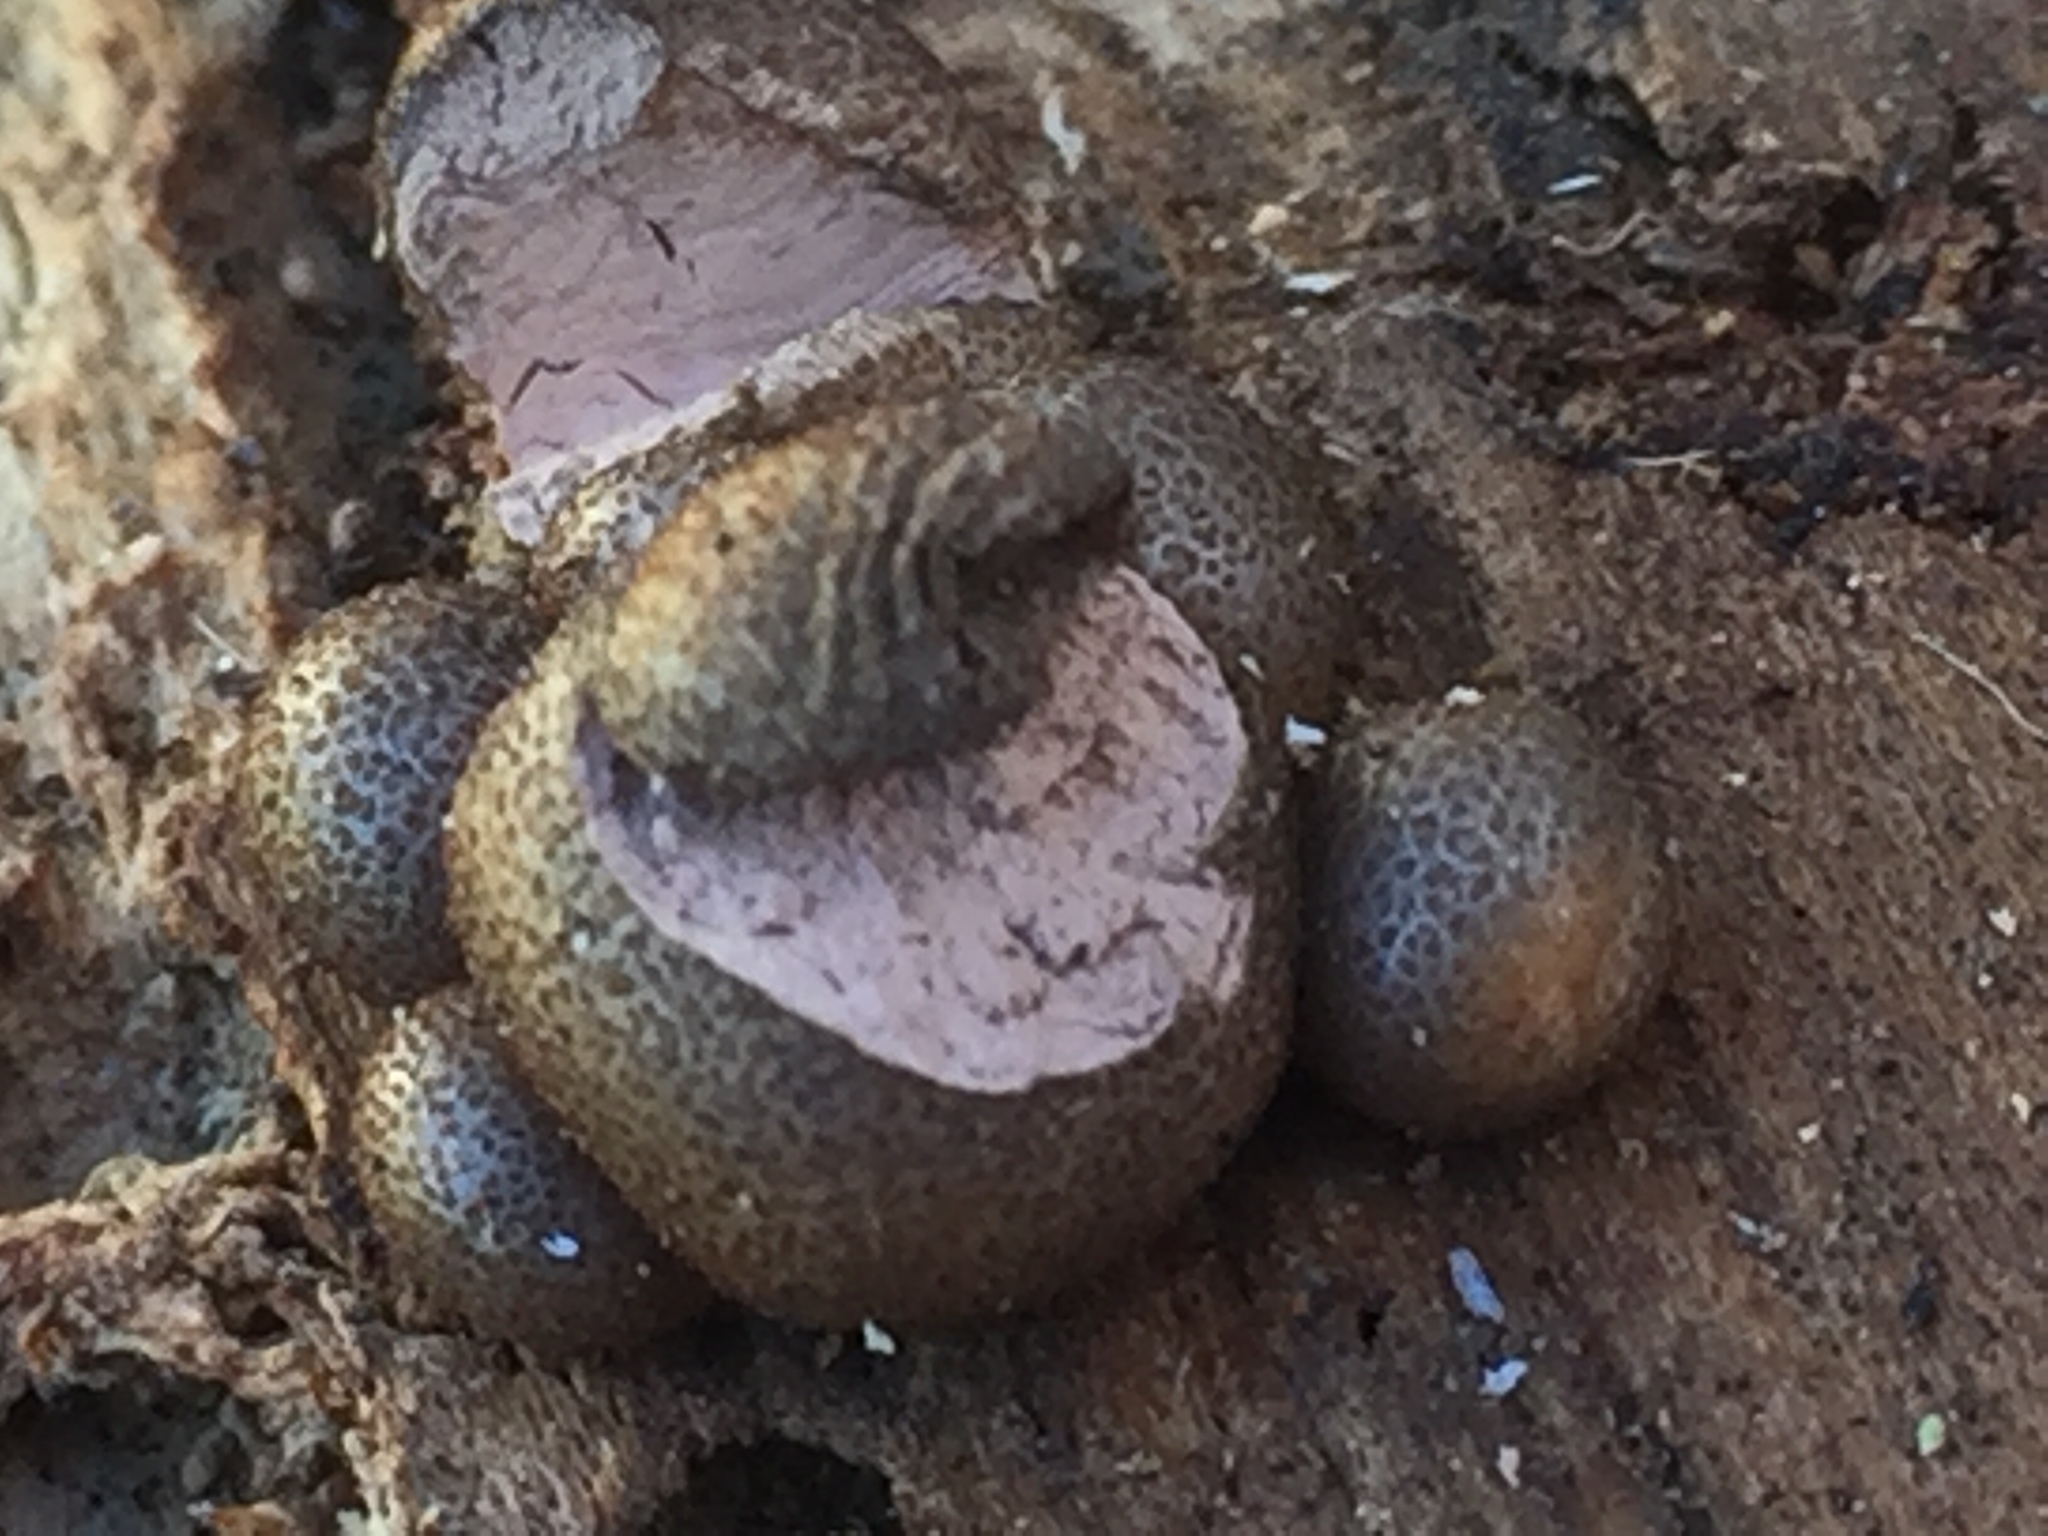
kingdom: Protozoa
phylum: Mycetozoa
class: Myxomycetes
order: Cribrariales
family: Tubiferaceae
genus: Lycogala
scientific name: Lycogala epidendrum
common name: Wolf's milk
